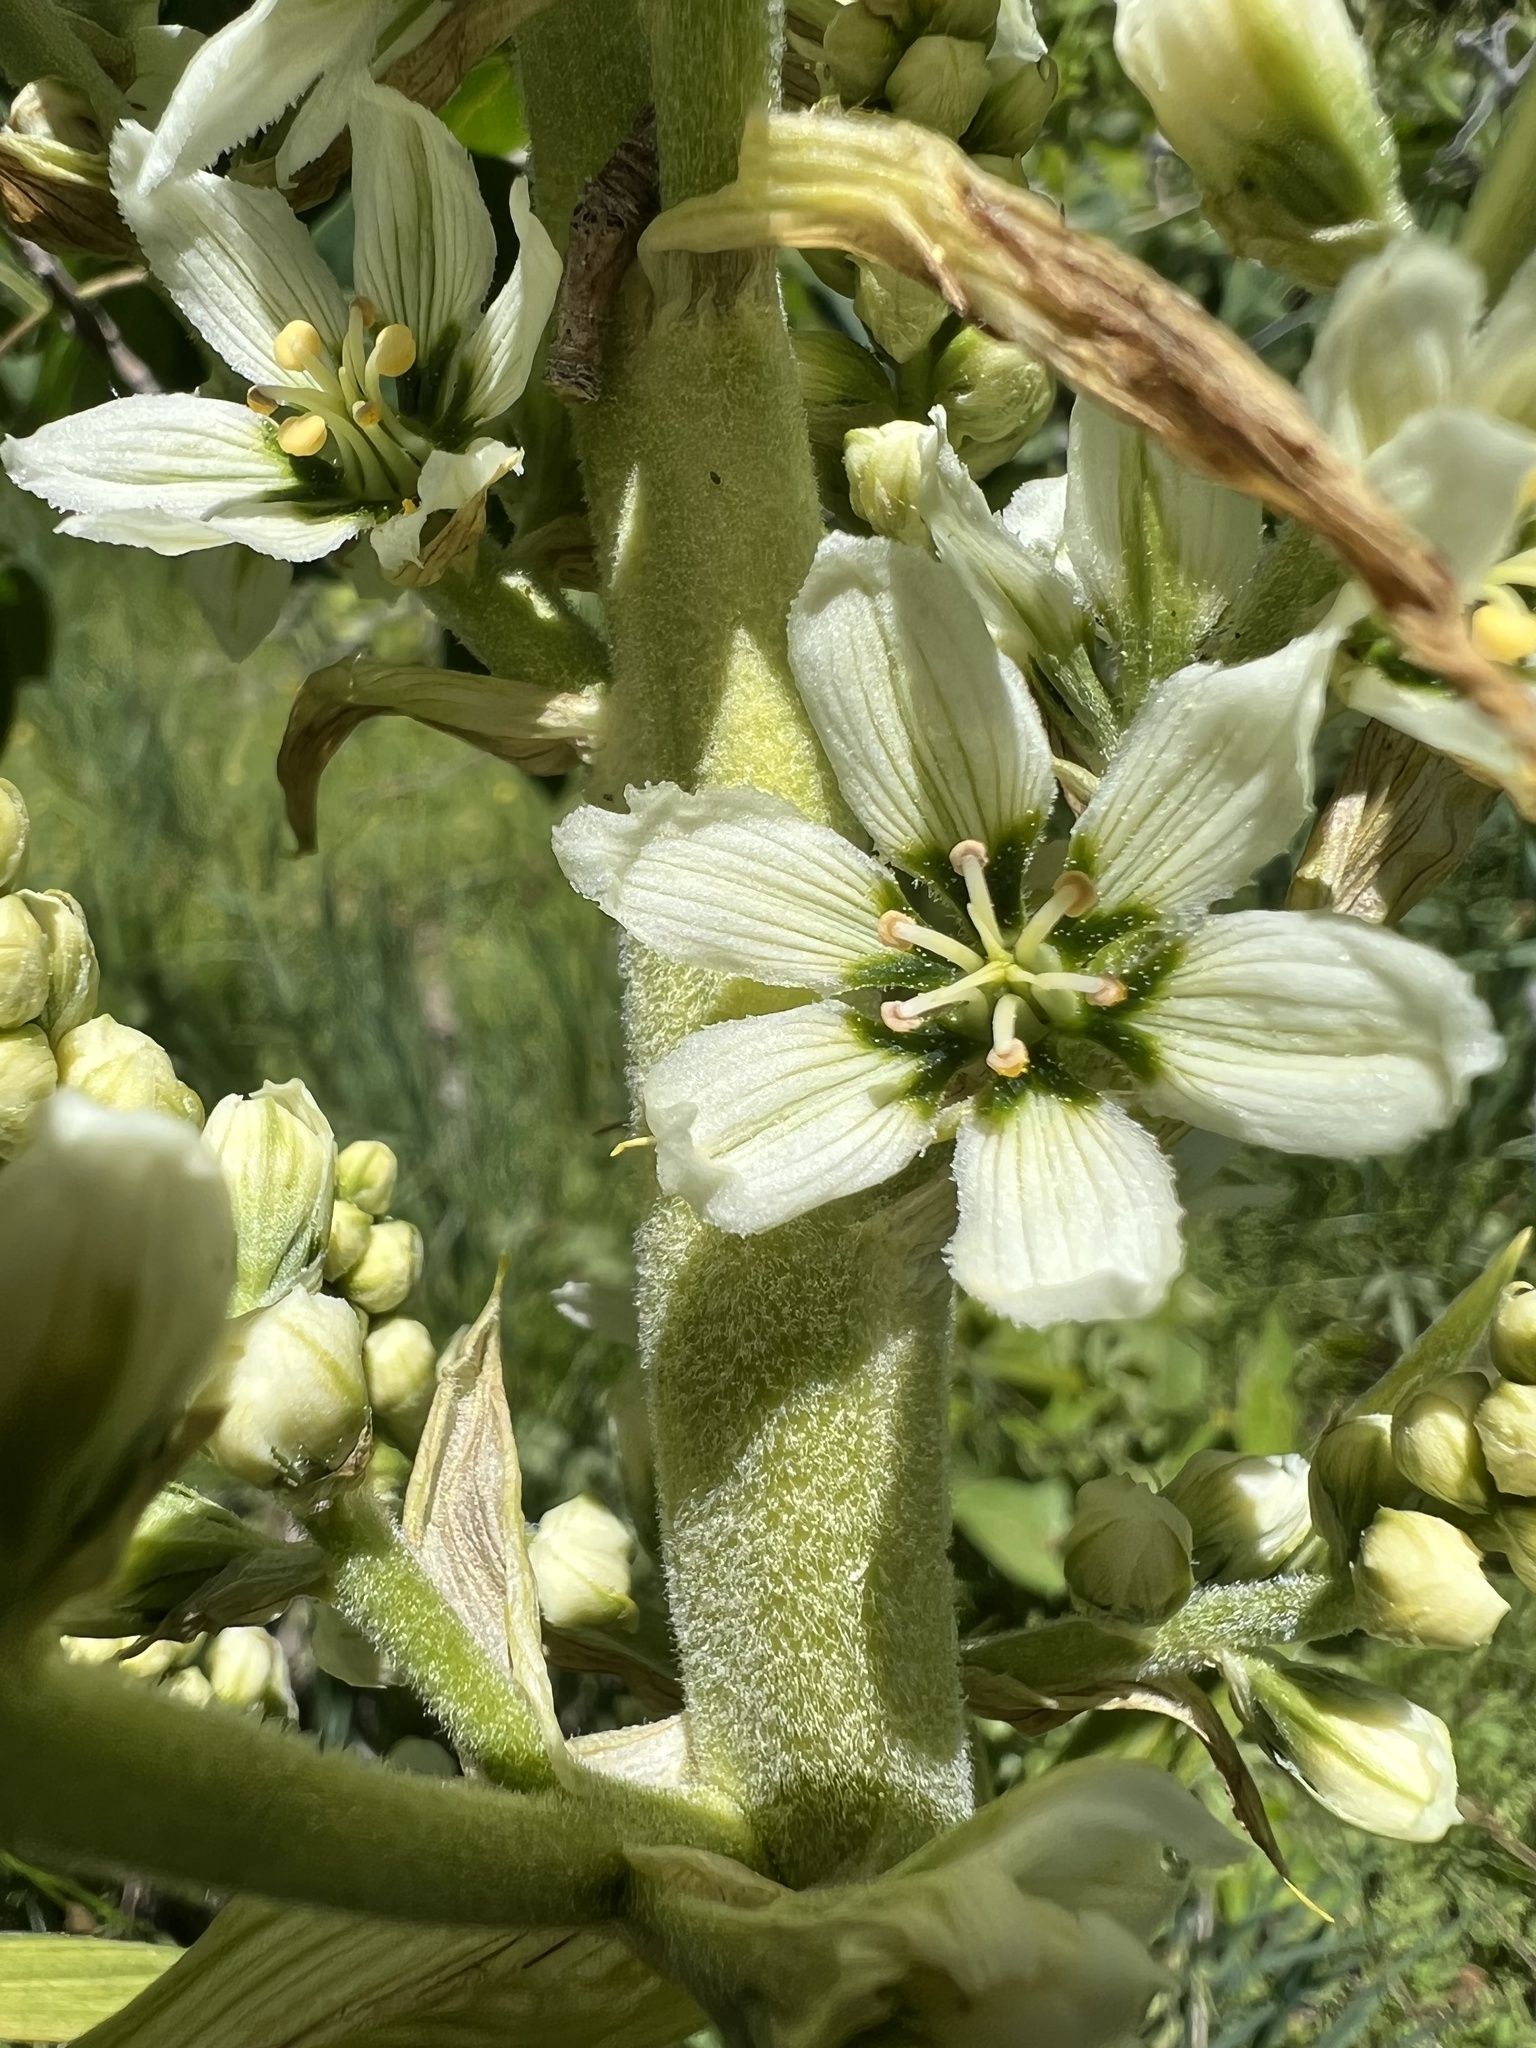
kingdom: Plantae
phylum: Tracheophyta
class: Liliopsida
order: Liliales
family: Melanthiaceae
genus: Veratrum
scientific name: Veratrum californicum
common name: California veratrum
